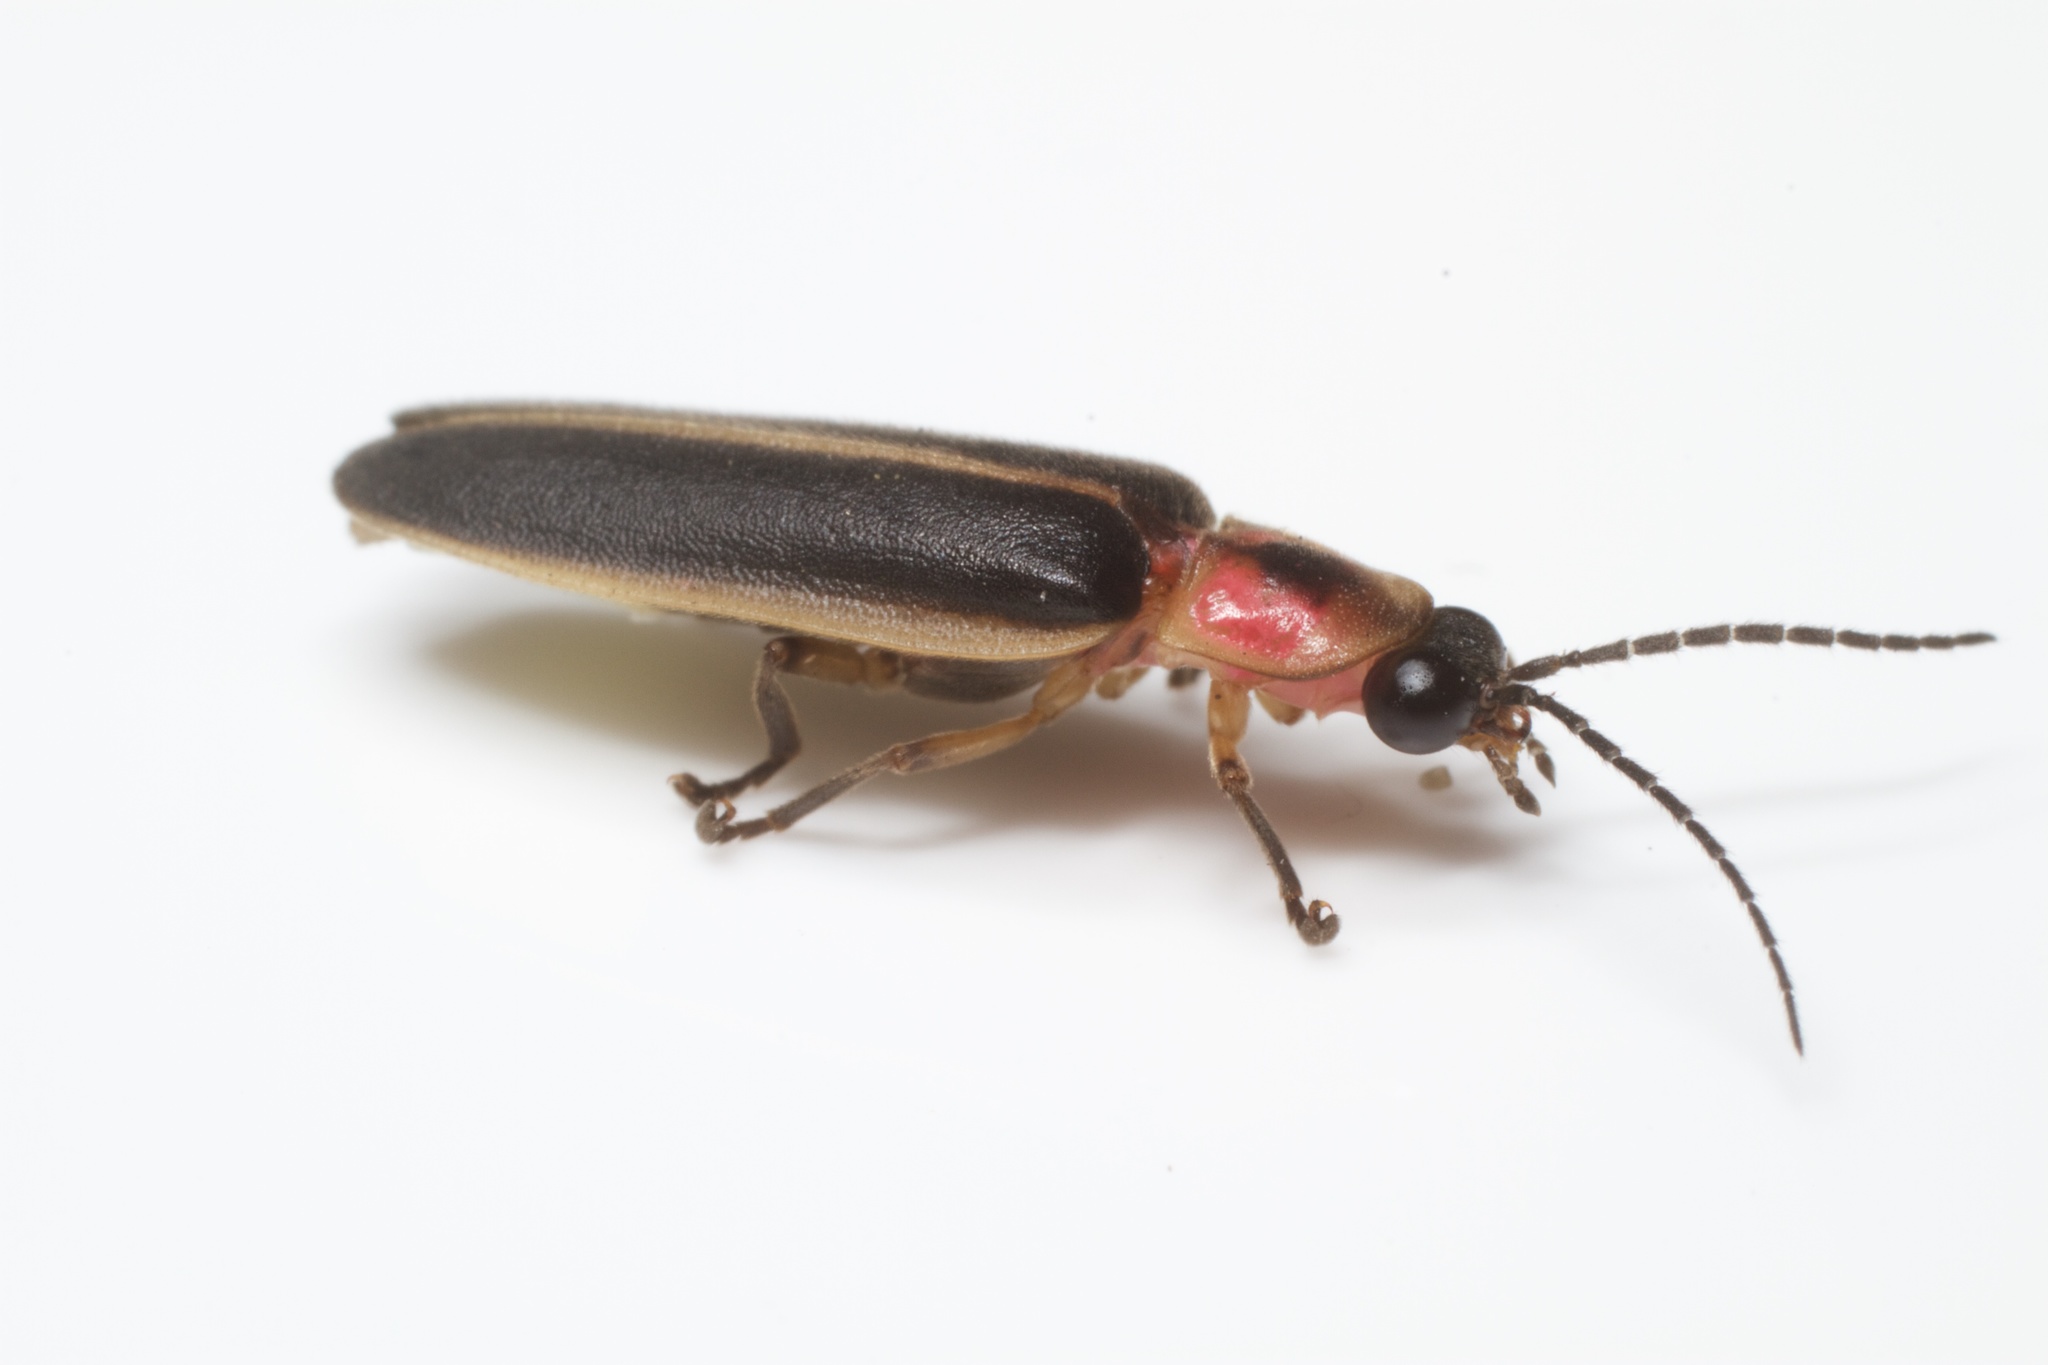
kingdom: Animalia
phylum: Arthropoda
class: Insecta
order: Coleoptera
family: Lampyridae
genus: Photinus
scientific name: Photinus pyralis
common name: Big dipper firefly
